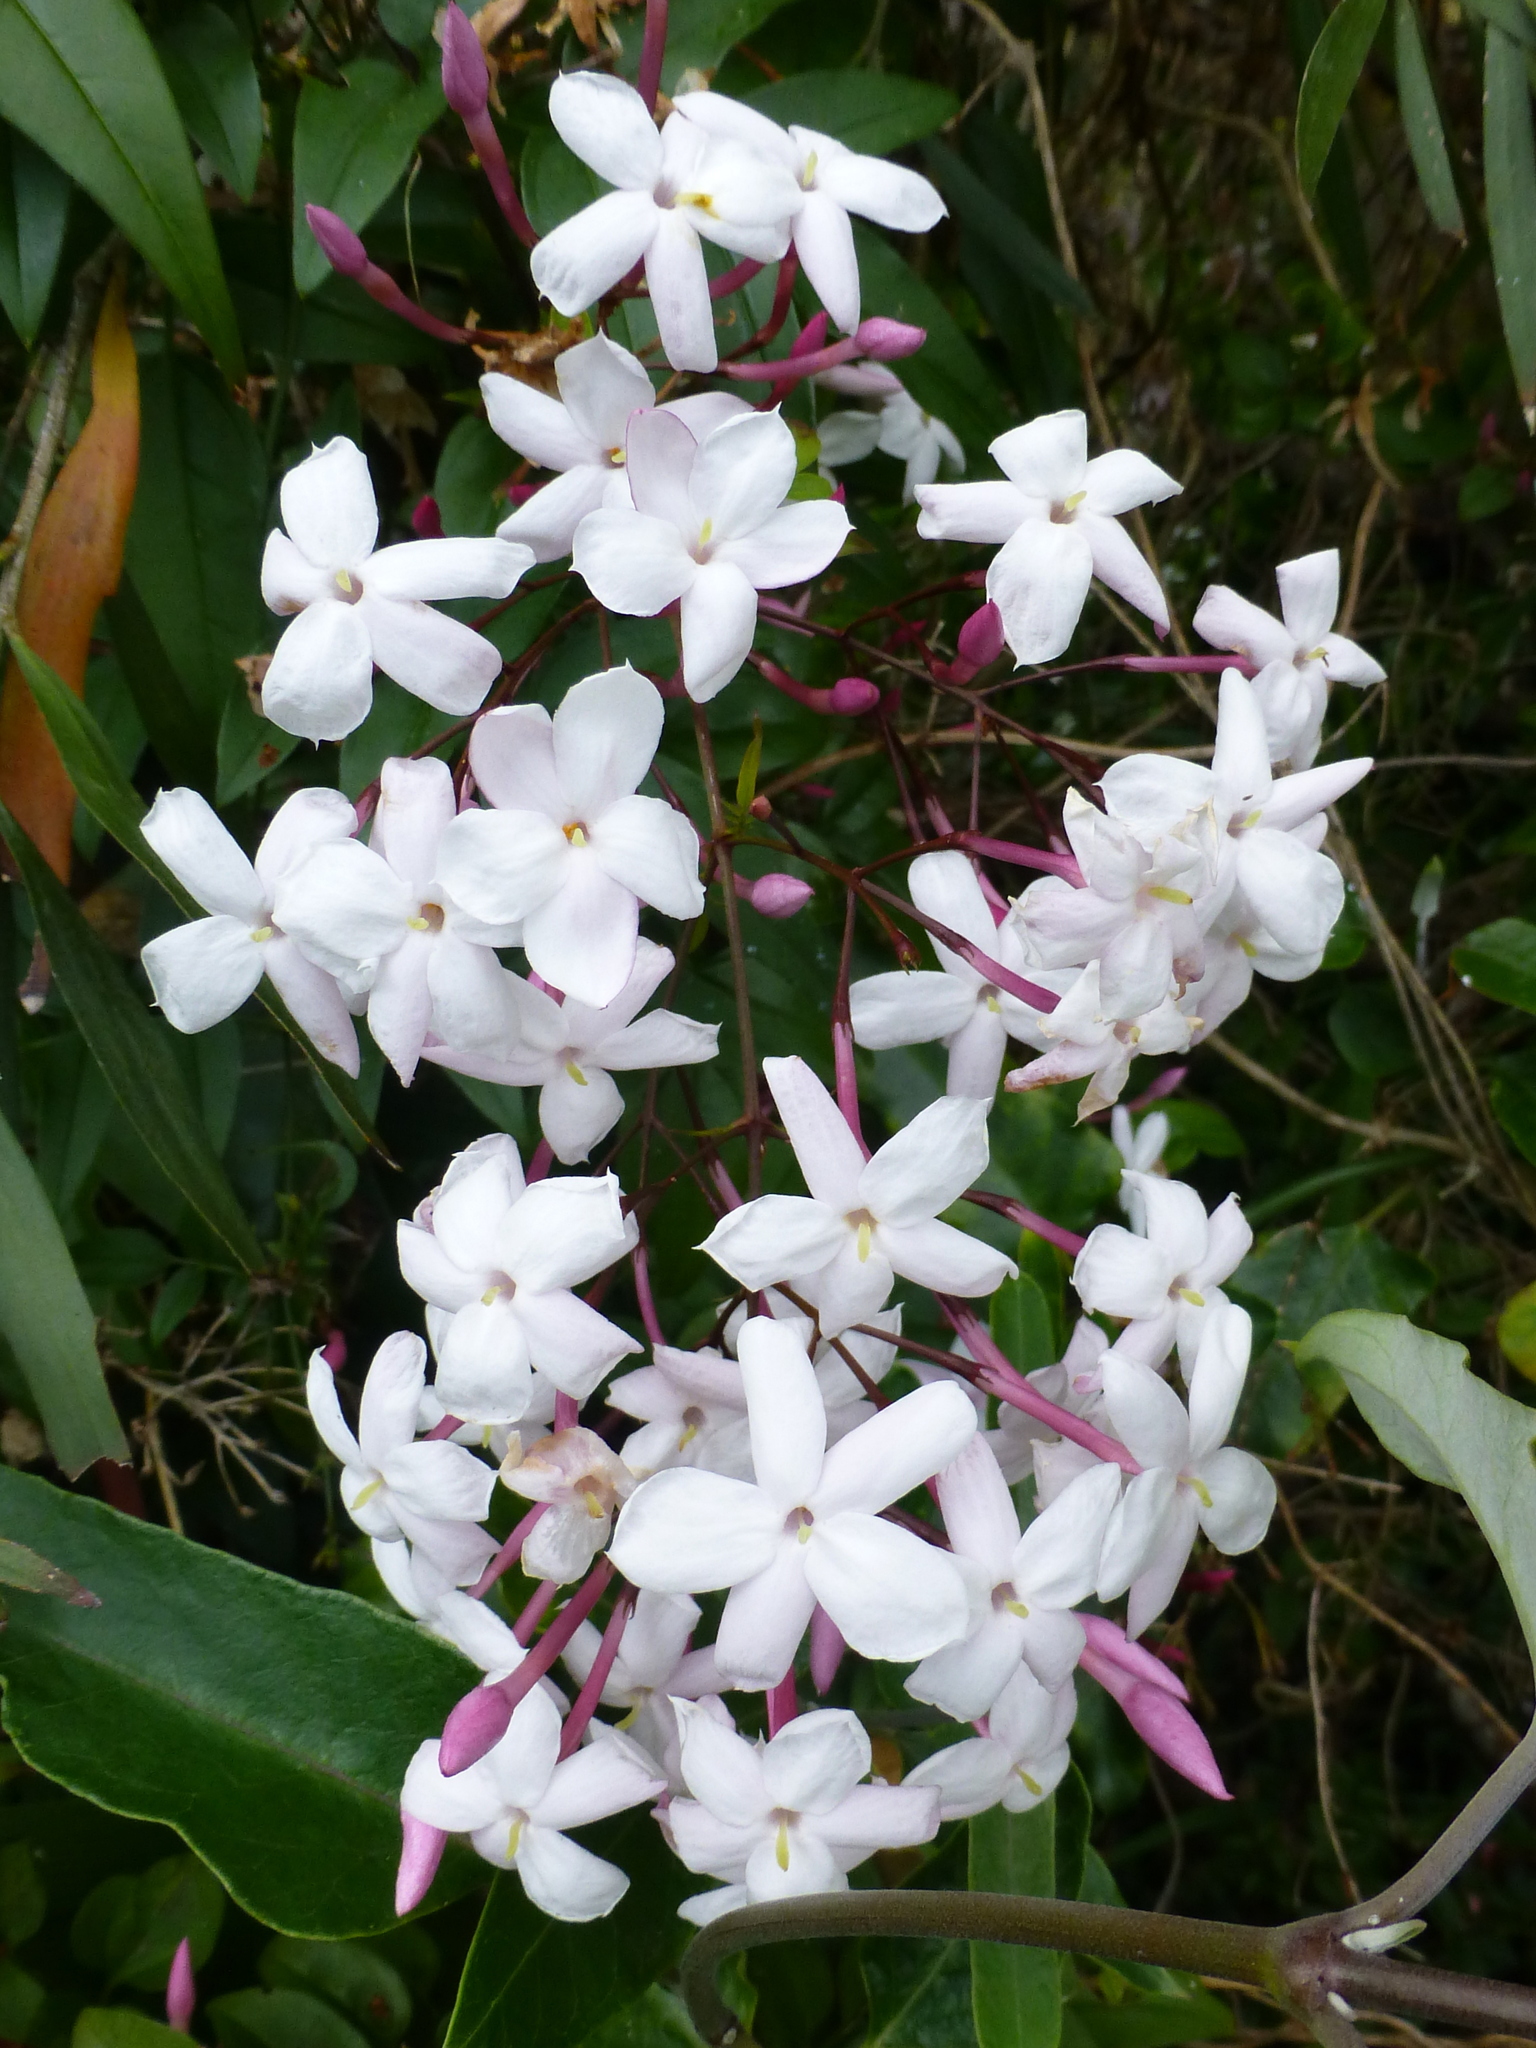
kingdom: Plantae
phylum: Tracheophyta
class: Magnoliopsida
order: Lamiales
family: Oleaceae
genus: Jasminum
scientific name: Jasminum polyanthum
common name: Pink jasmine
